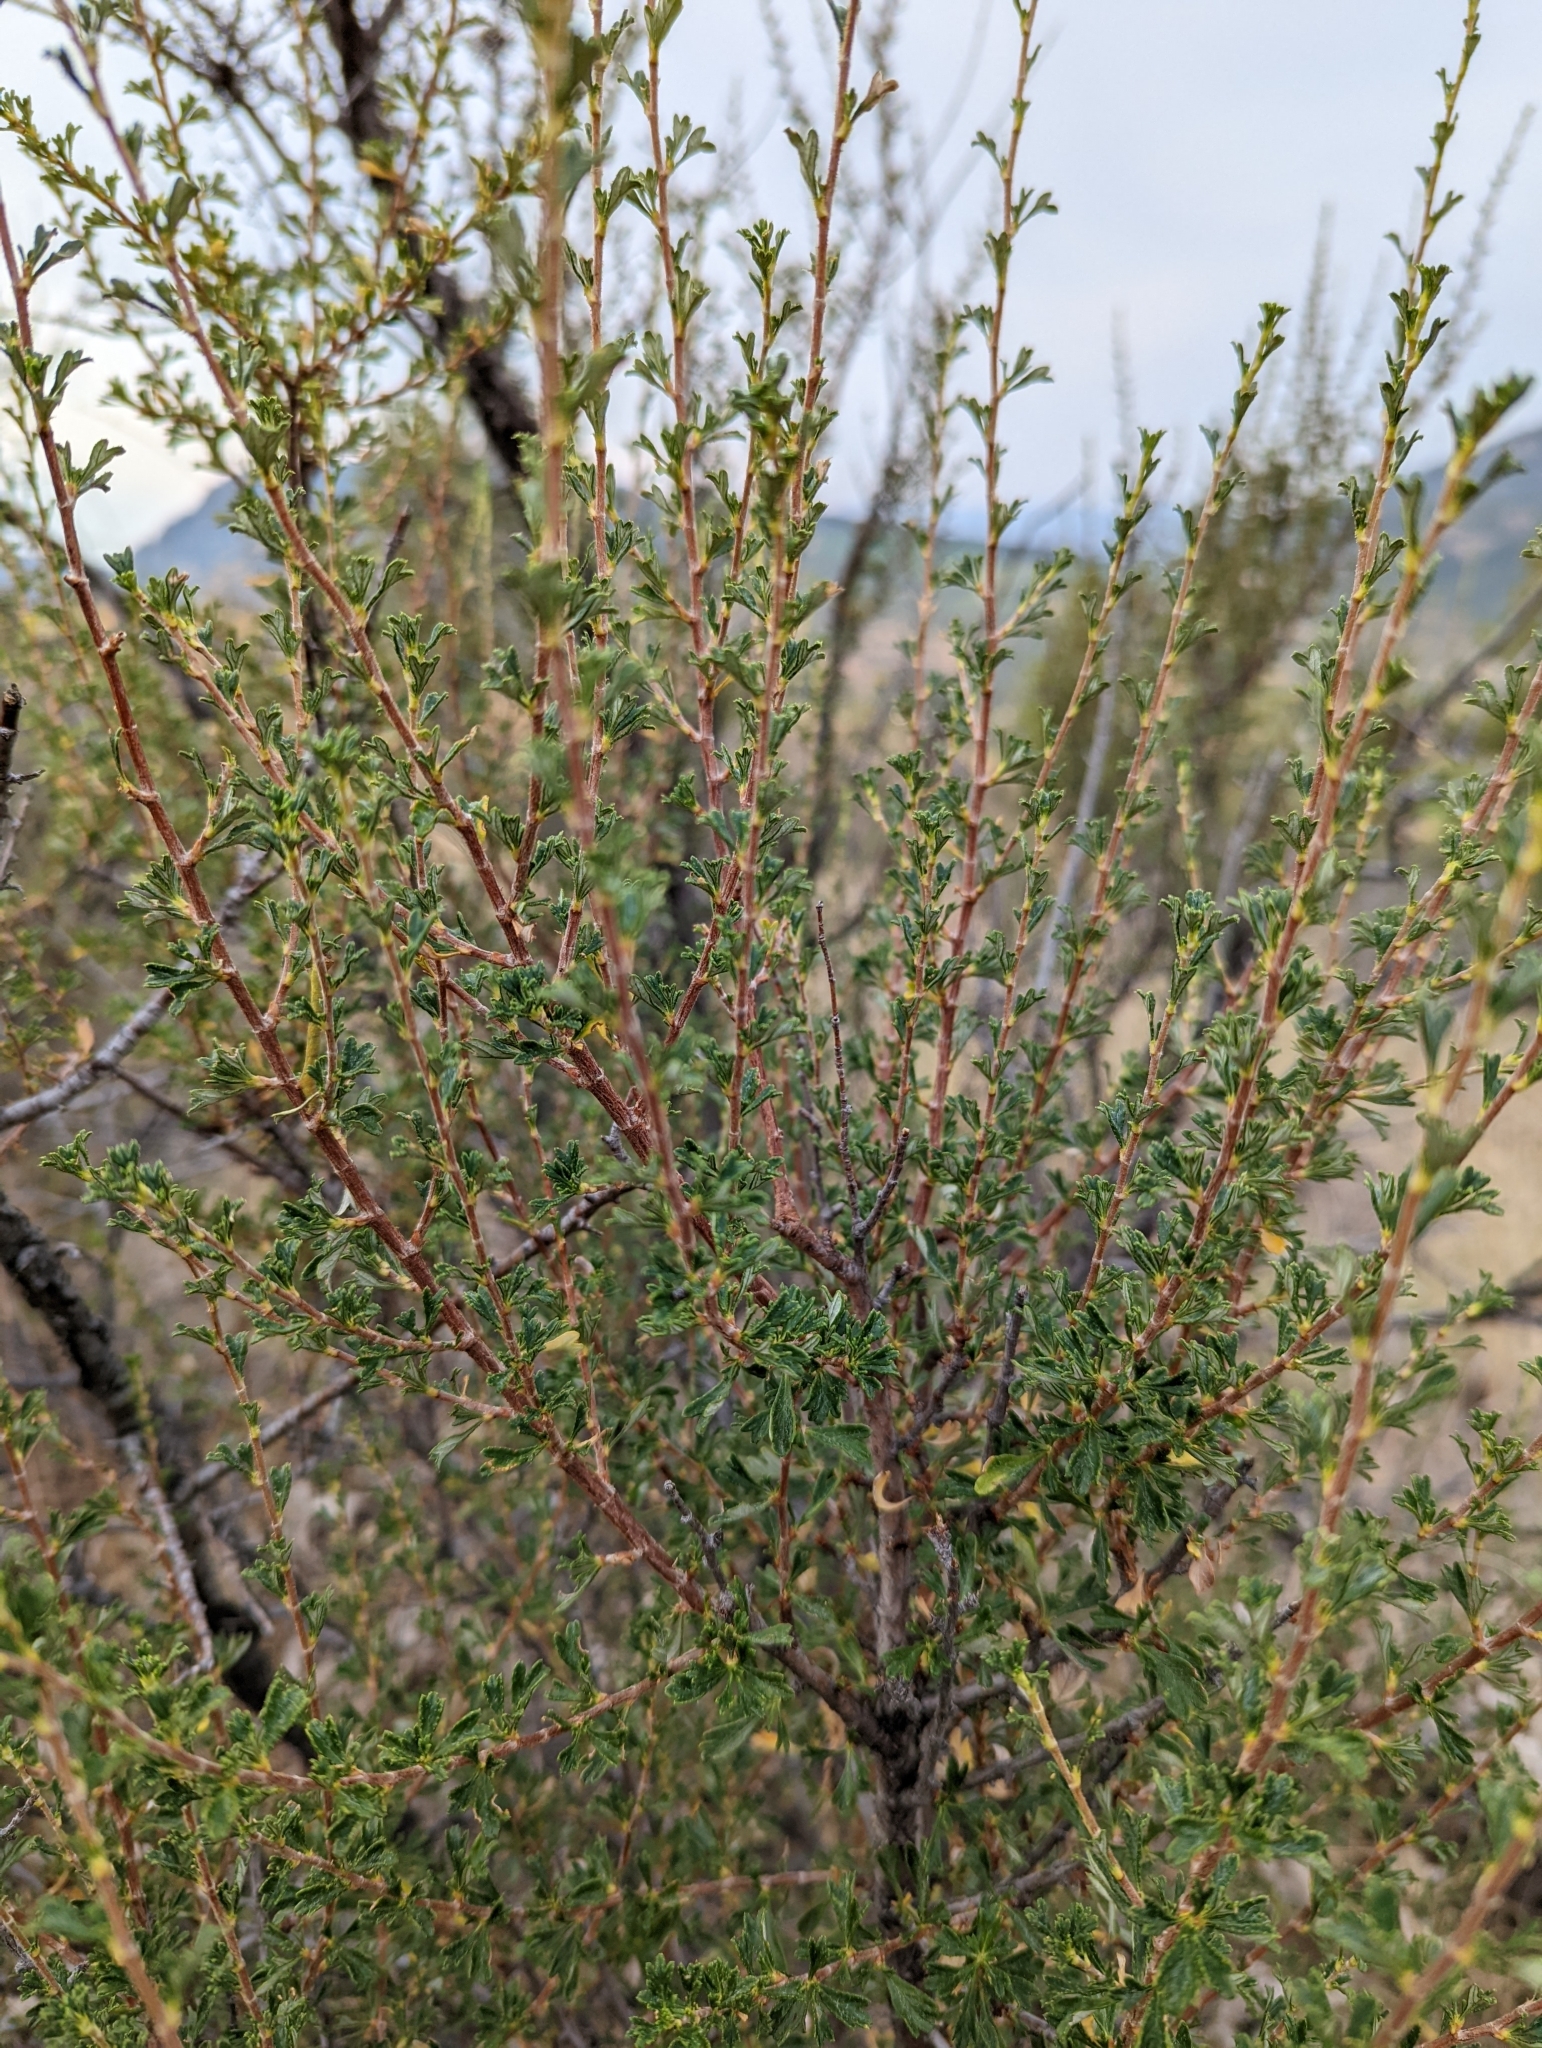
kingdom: Plantae
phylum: Tracheophyta
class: Magnoliopsida
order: Rosales
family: Rosaceae
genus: Purshia
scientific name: Purshia tridentata
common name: Antelope bitterbrush
